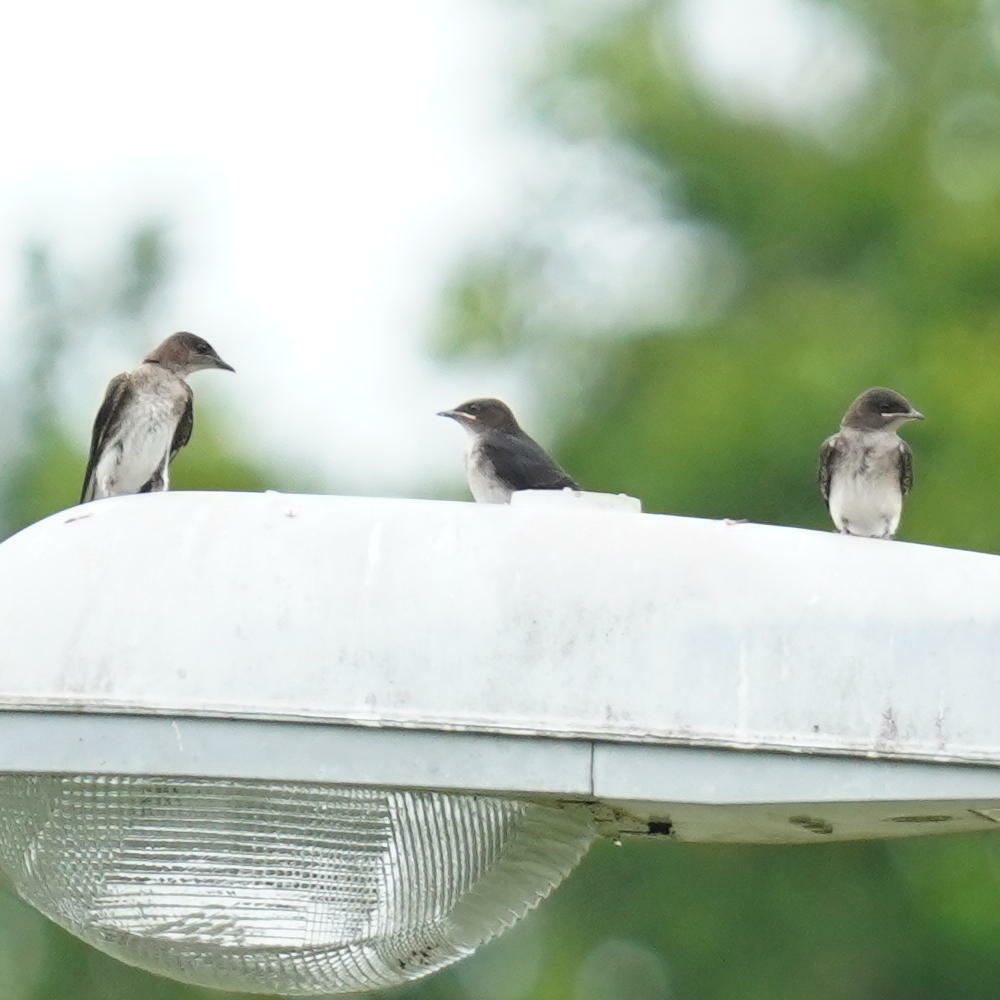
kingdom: Animalia
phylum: Chordata
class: Aves
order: Passeriformes
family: Hirundinidae
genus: Progne
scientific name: Progne chalybea
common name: Grey-breasted martin
